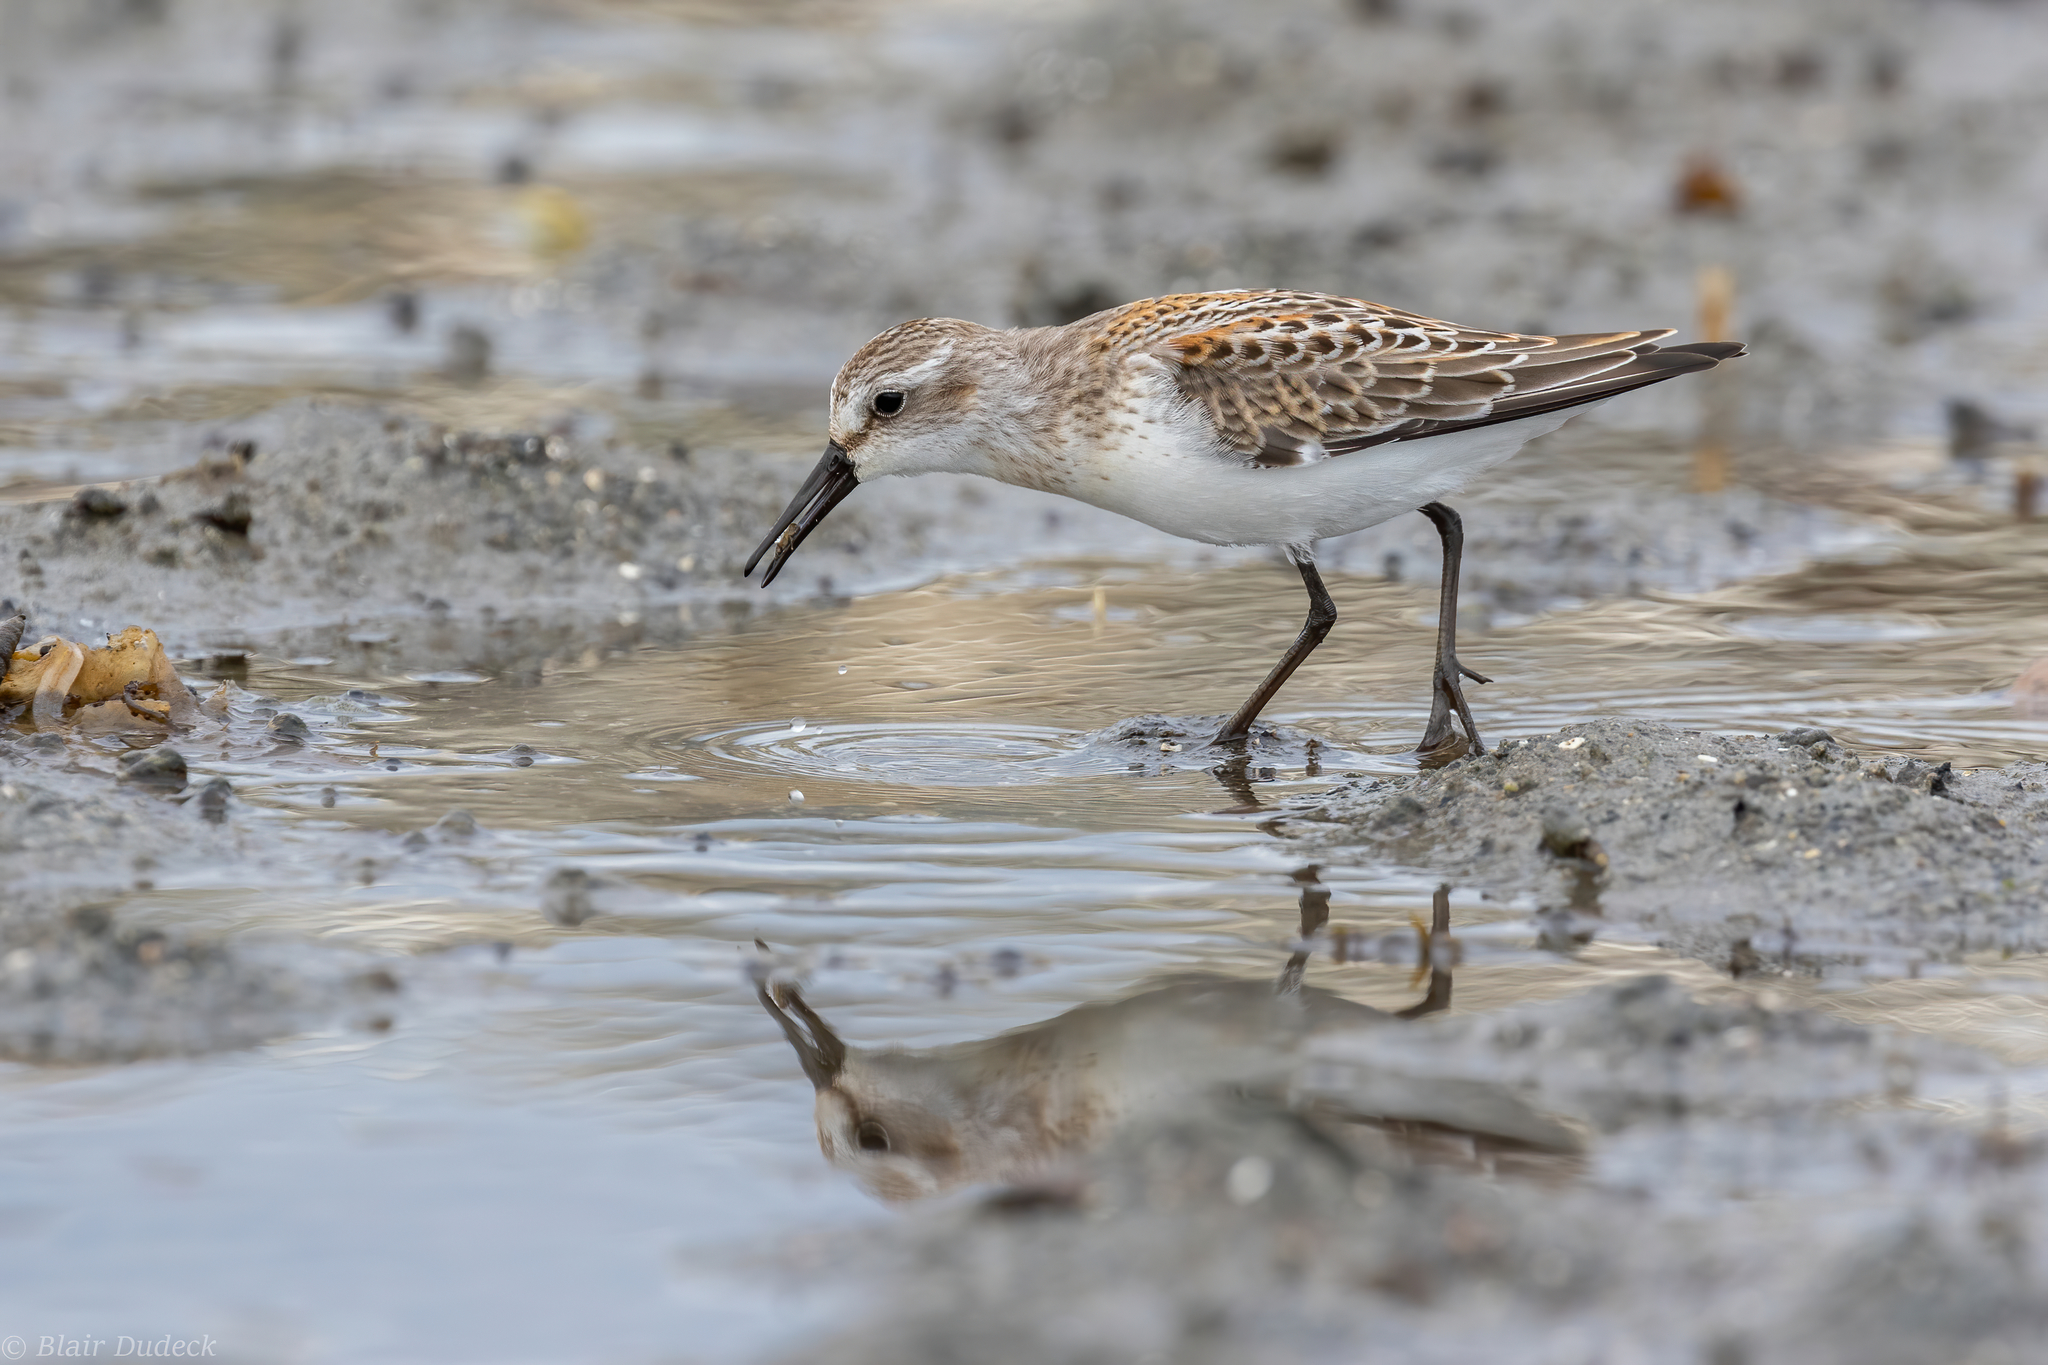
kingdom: Animalia
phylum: Chordata
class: Aves
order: Charadriiformes
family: Scolopacidae
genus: Calidris
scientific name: Calidris mauri
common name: Western sandpiper
